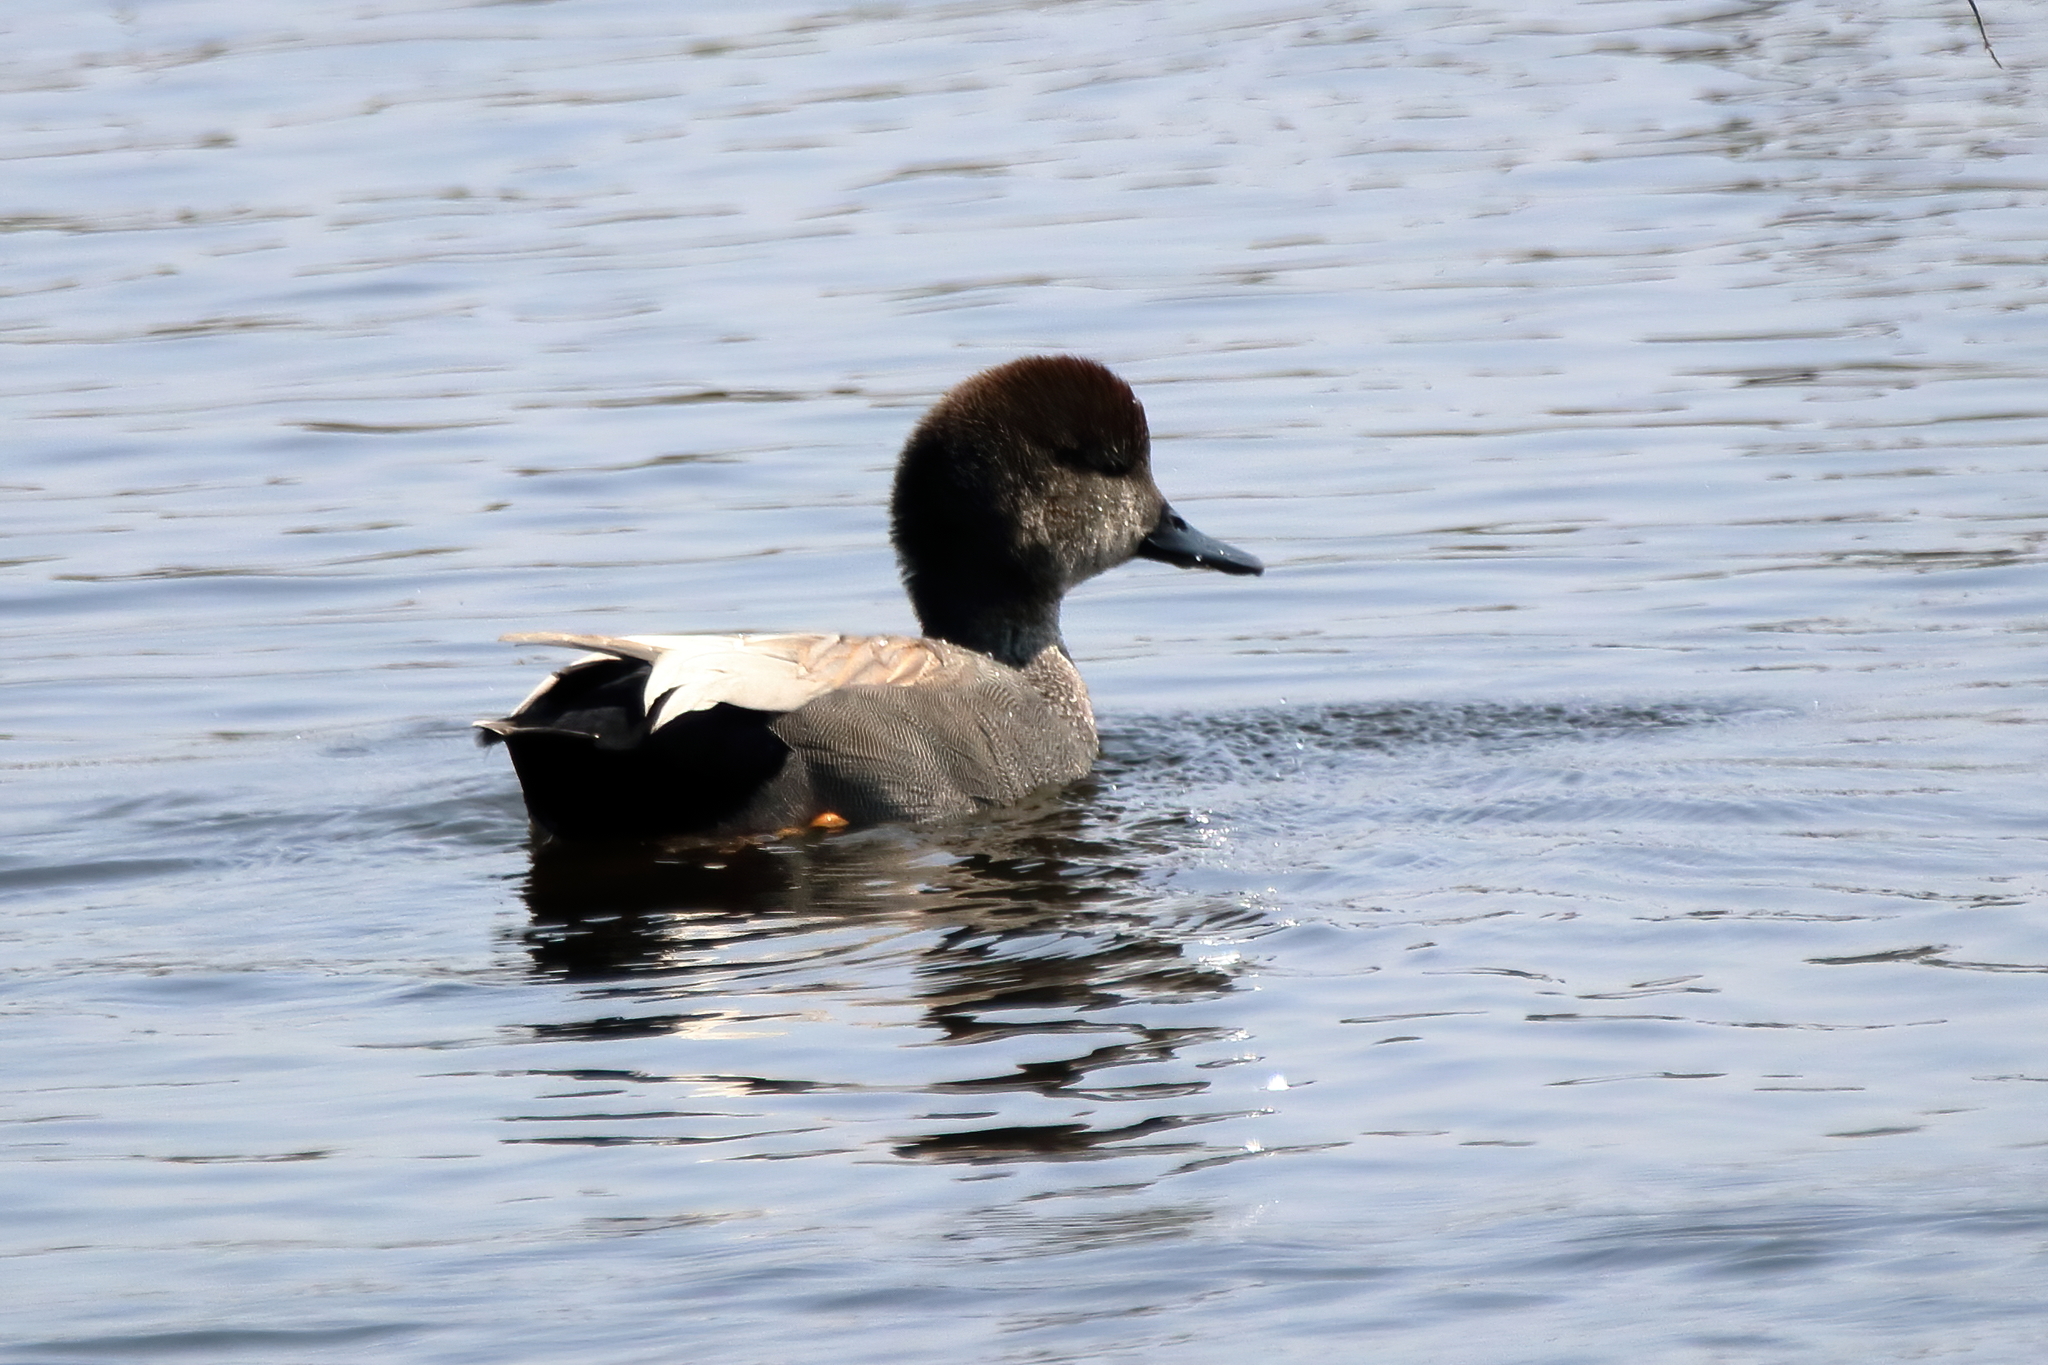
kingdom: Animalia
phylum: Chordata
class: Aves
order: Anseriformes
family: Anatidae
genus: Mareca
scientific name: Mareca strepera
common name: Gadwall
